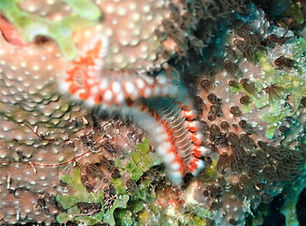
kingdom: Animalia
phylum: Annelida
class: Polychaeta
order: Amphinomida
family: Amphinomidae
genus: Hermodice
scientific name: Hermodice carunculata
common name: Bearded fireworm
